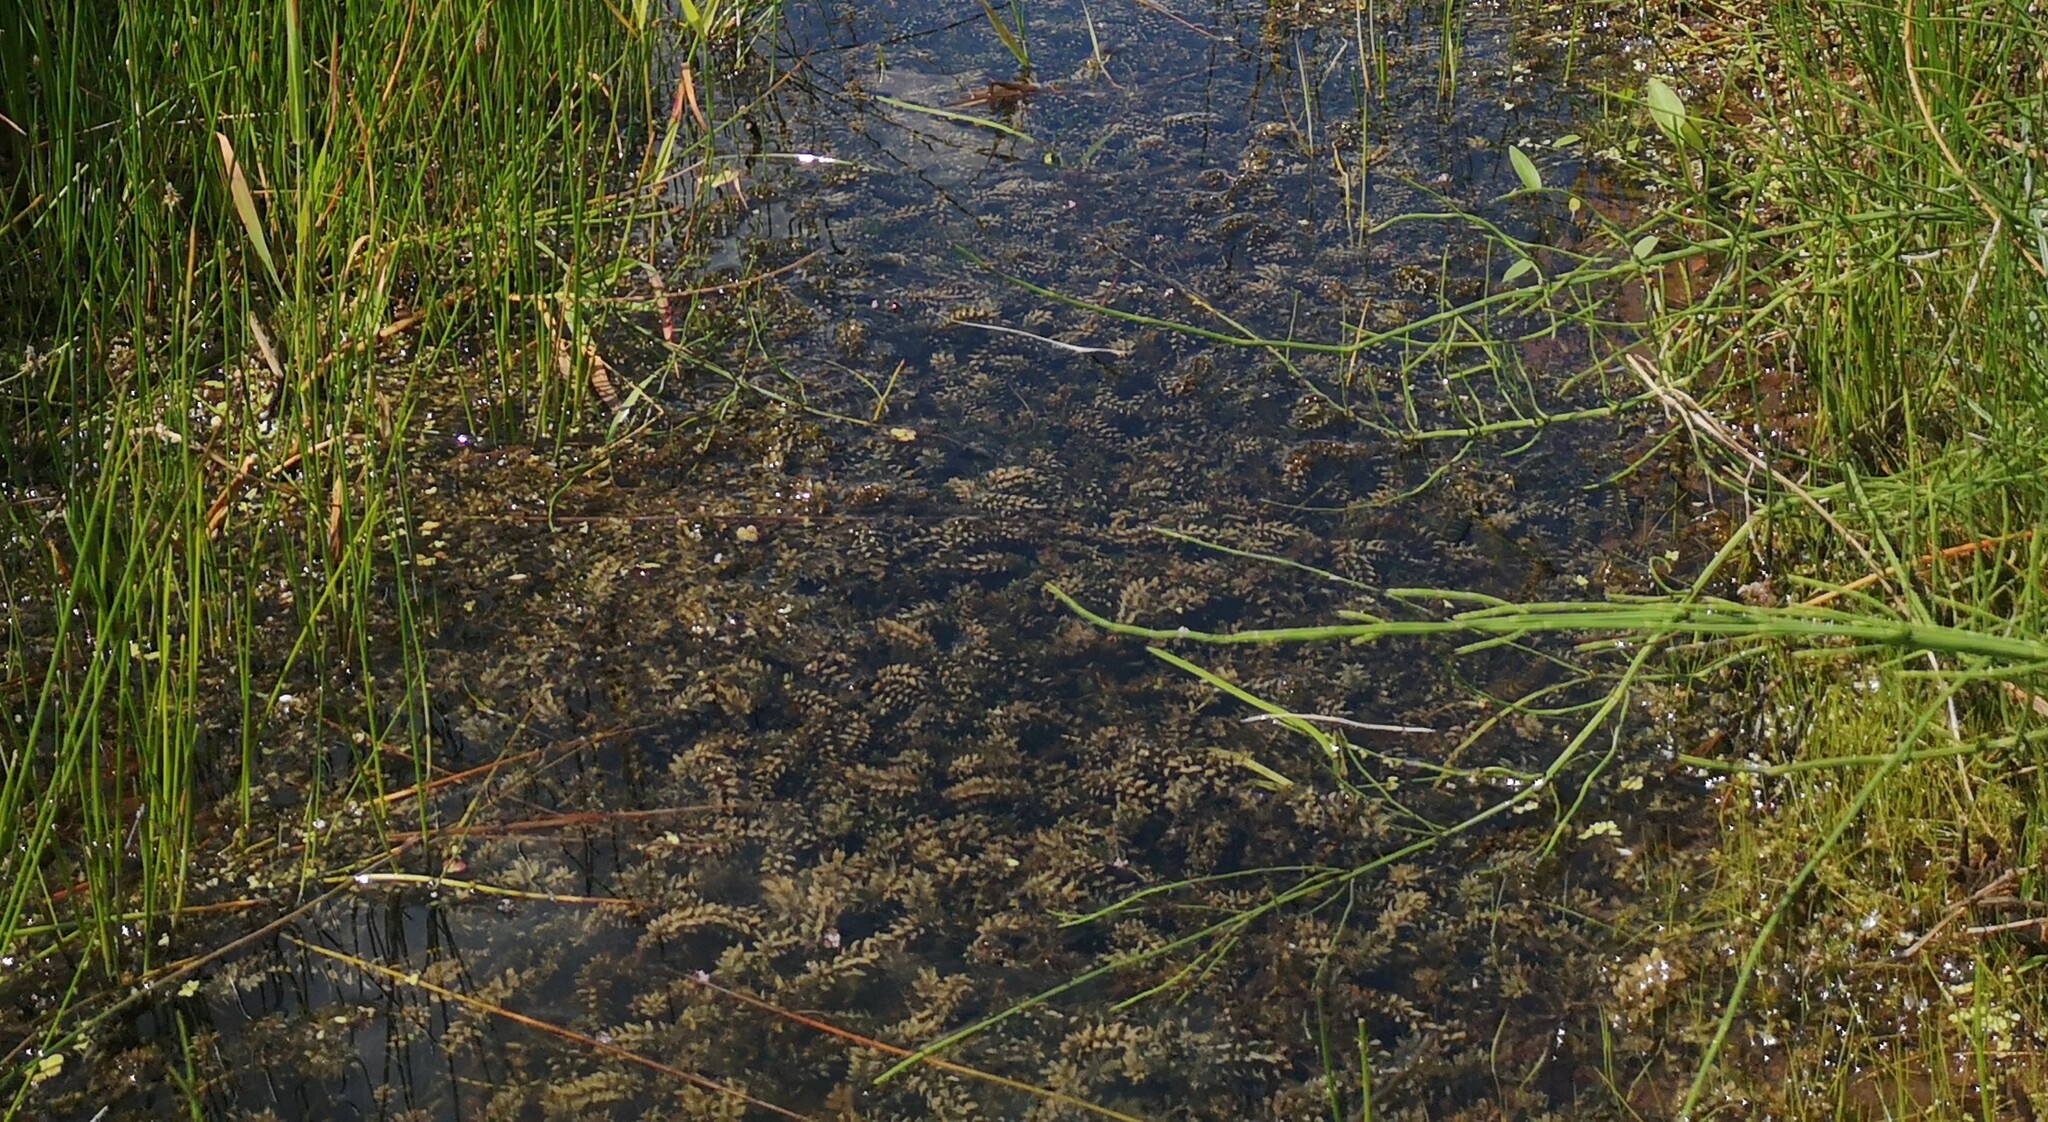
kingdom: Plantae
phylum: Tracheophyta
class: Liliopsida
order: Alismatales
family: Hydrocharitaceae
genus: Elodea
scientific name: Elodea canadensis
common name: Canadian waterweed
